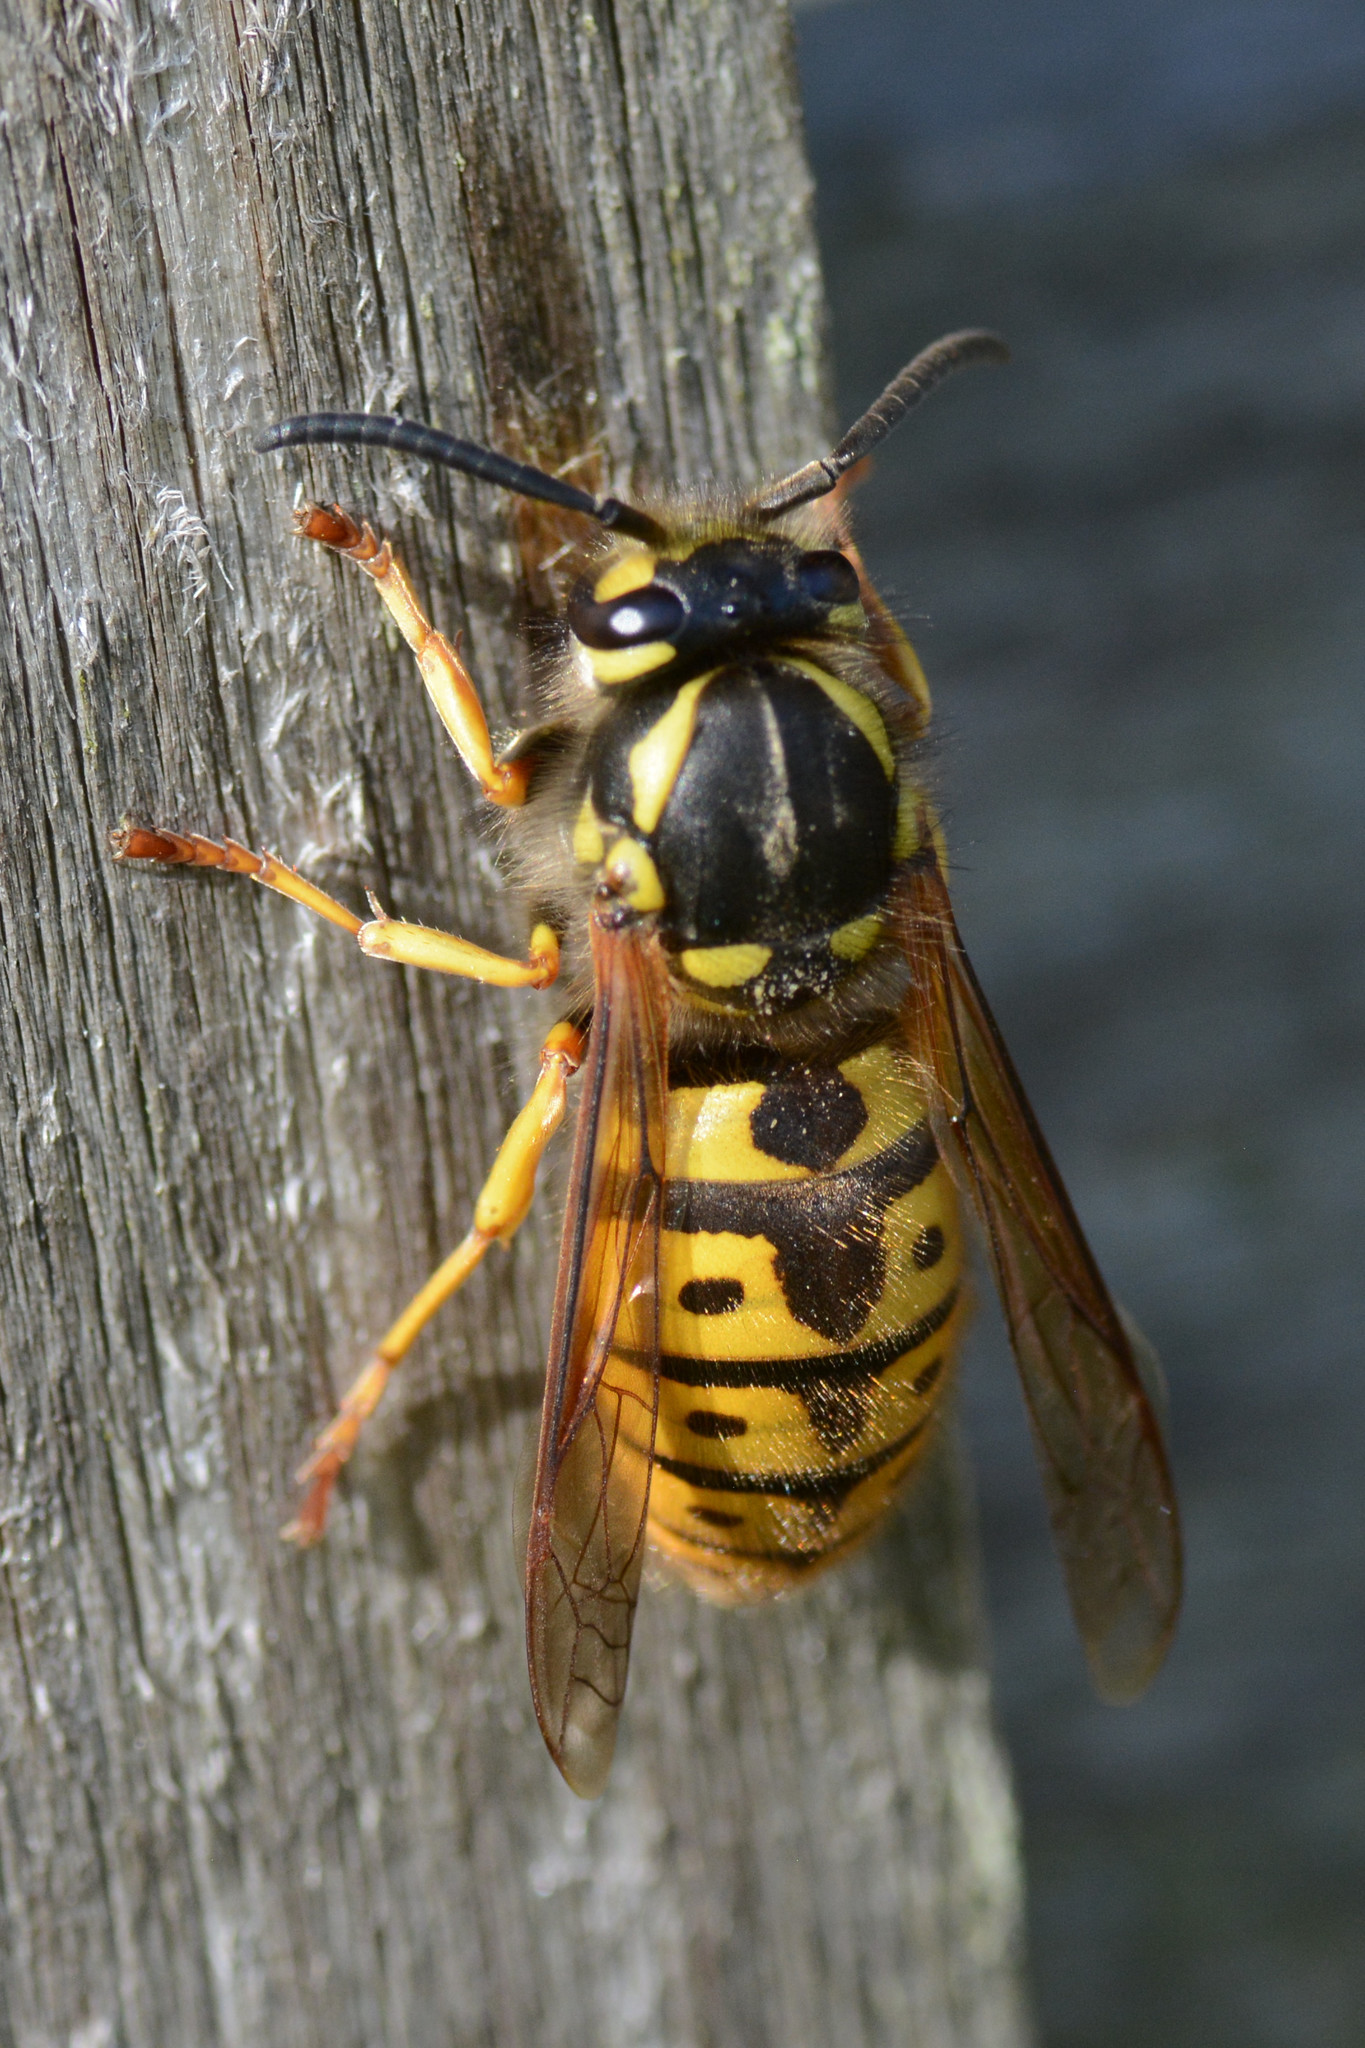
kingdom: Animalia
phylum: Arthropoda
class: Insecta
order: Hymenoptera
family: Vespidae
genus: Vespula
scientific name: Vespula germanica
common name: German wasp
